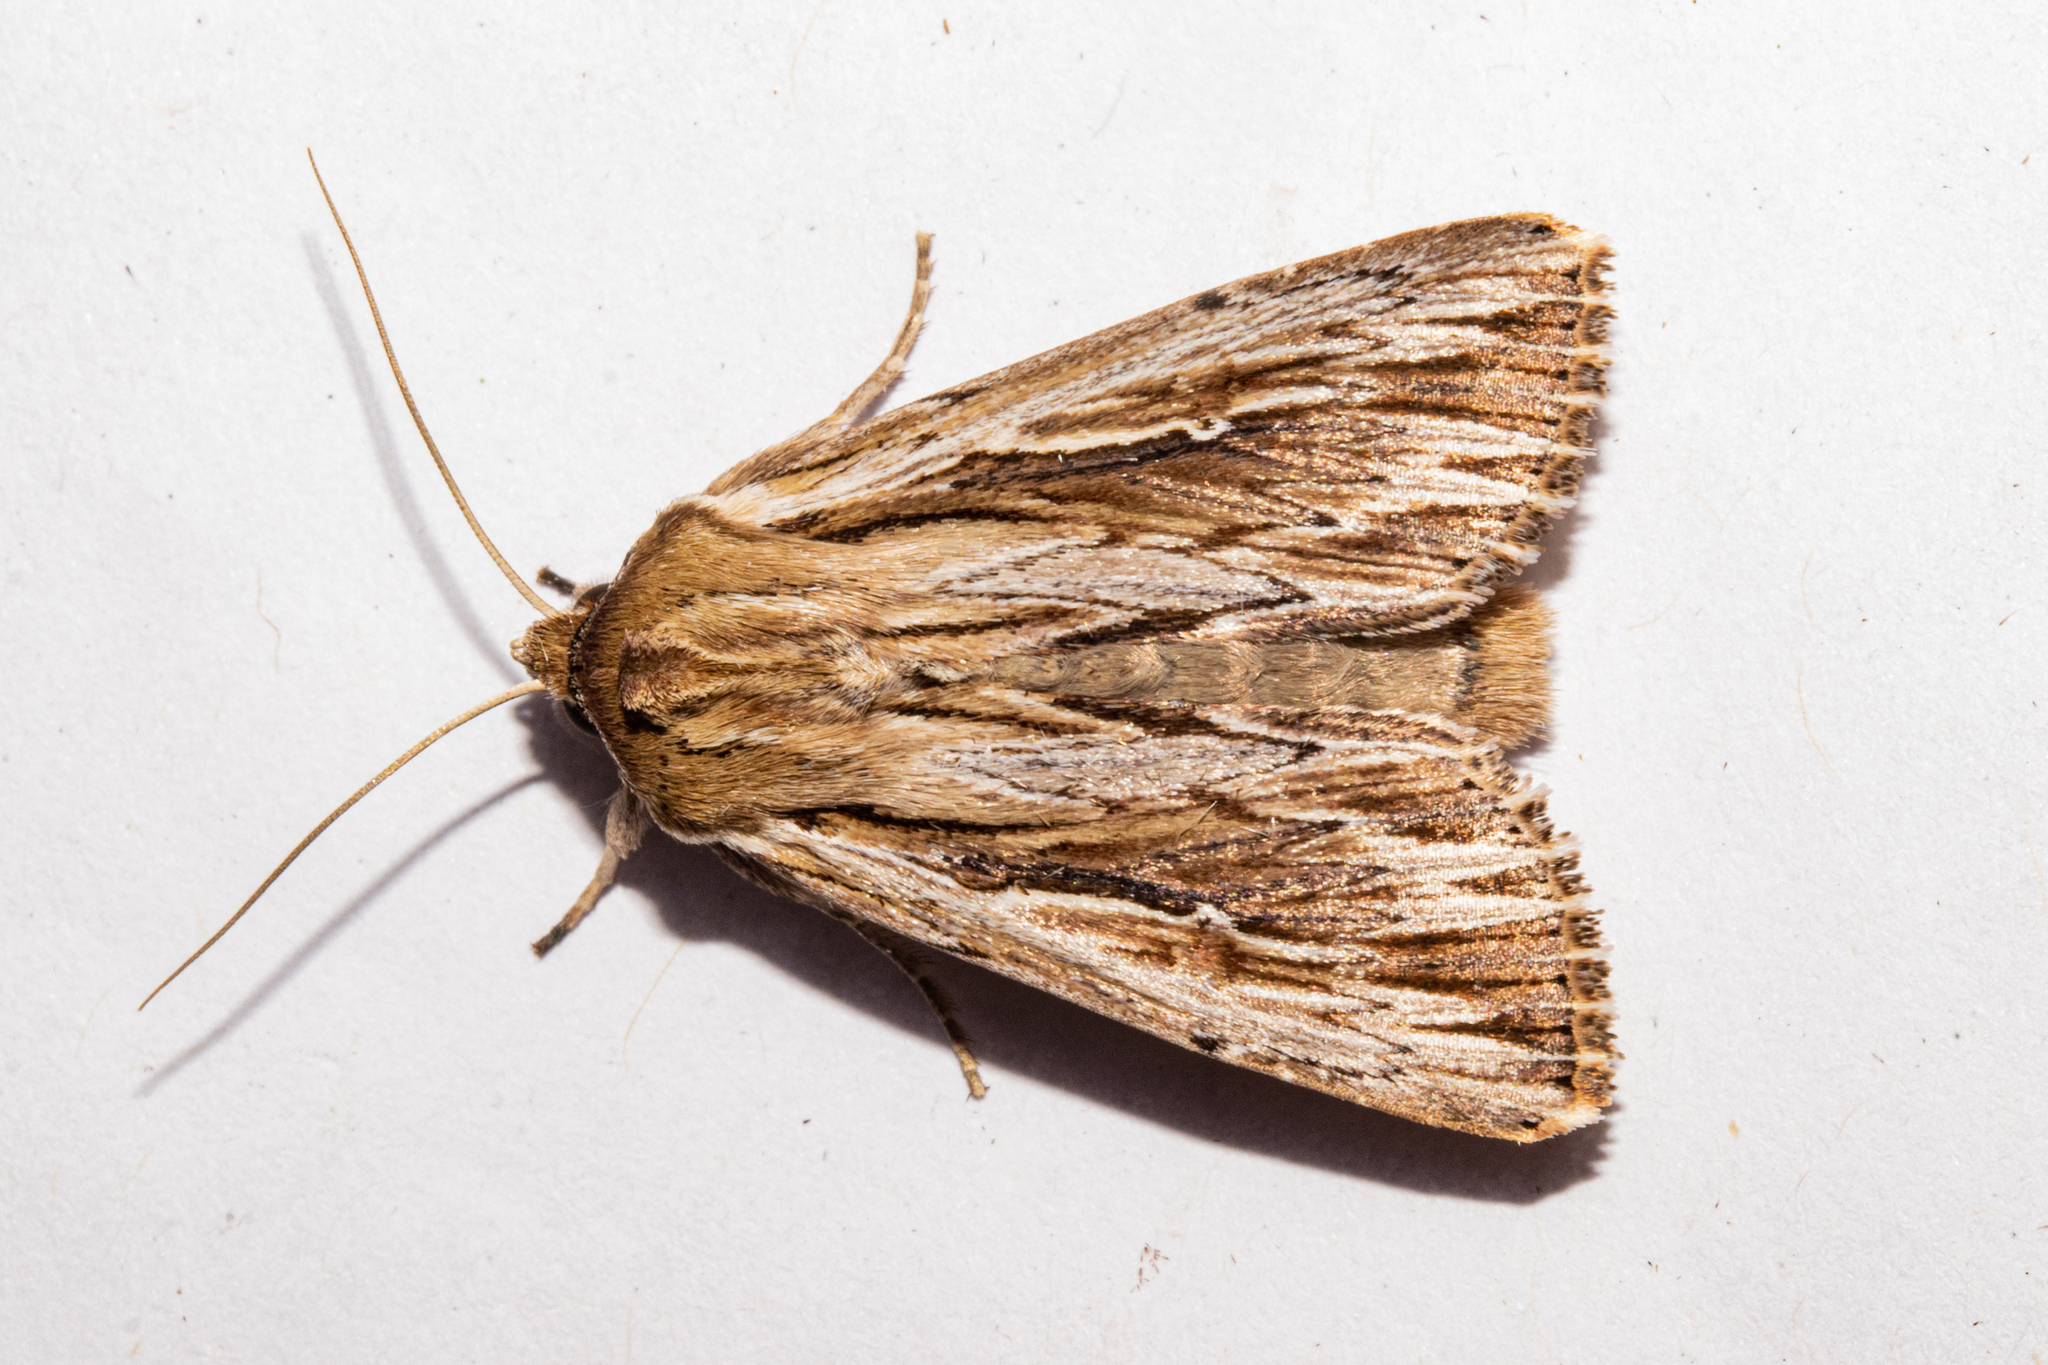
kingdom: Animalia
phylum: Arthropoda
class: Insecta
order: Lepidoptera
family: Noctuidae
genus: Persectania
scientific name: Persectania aversa
